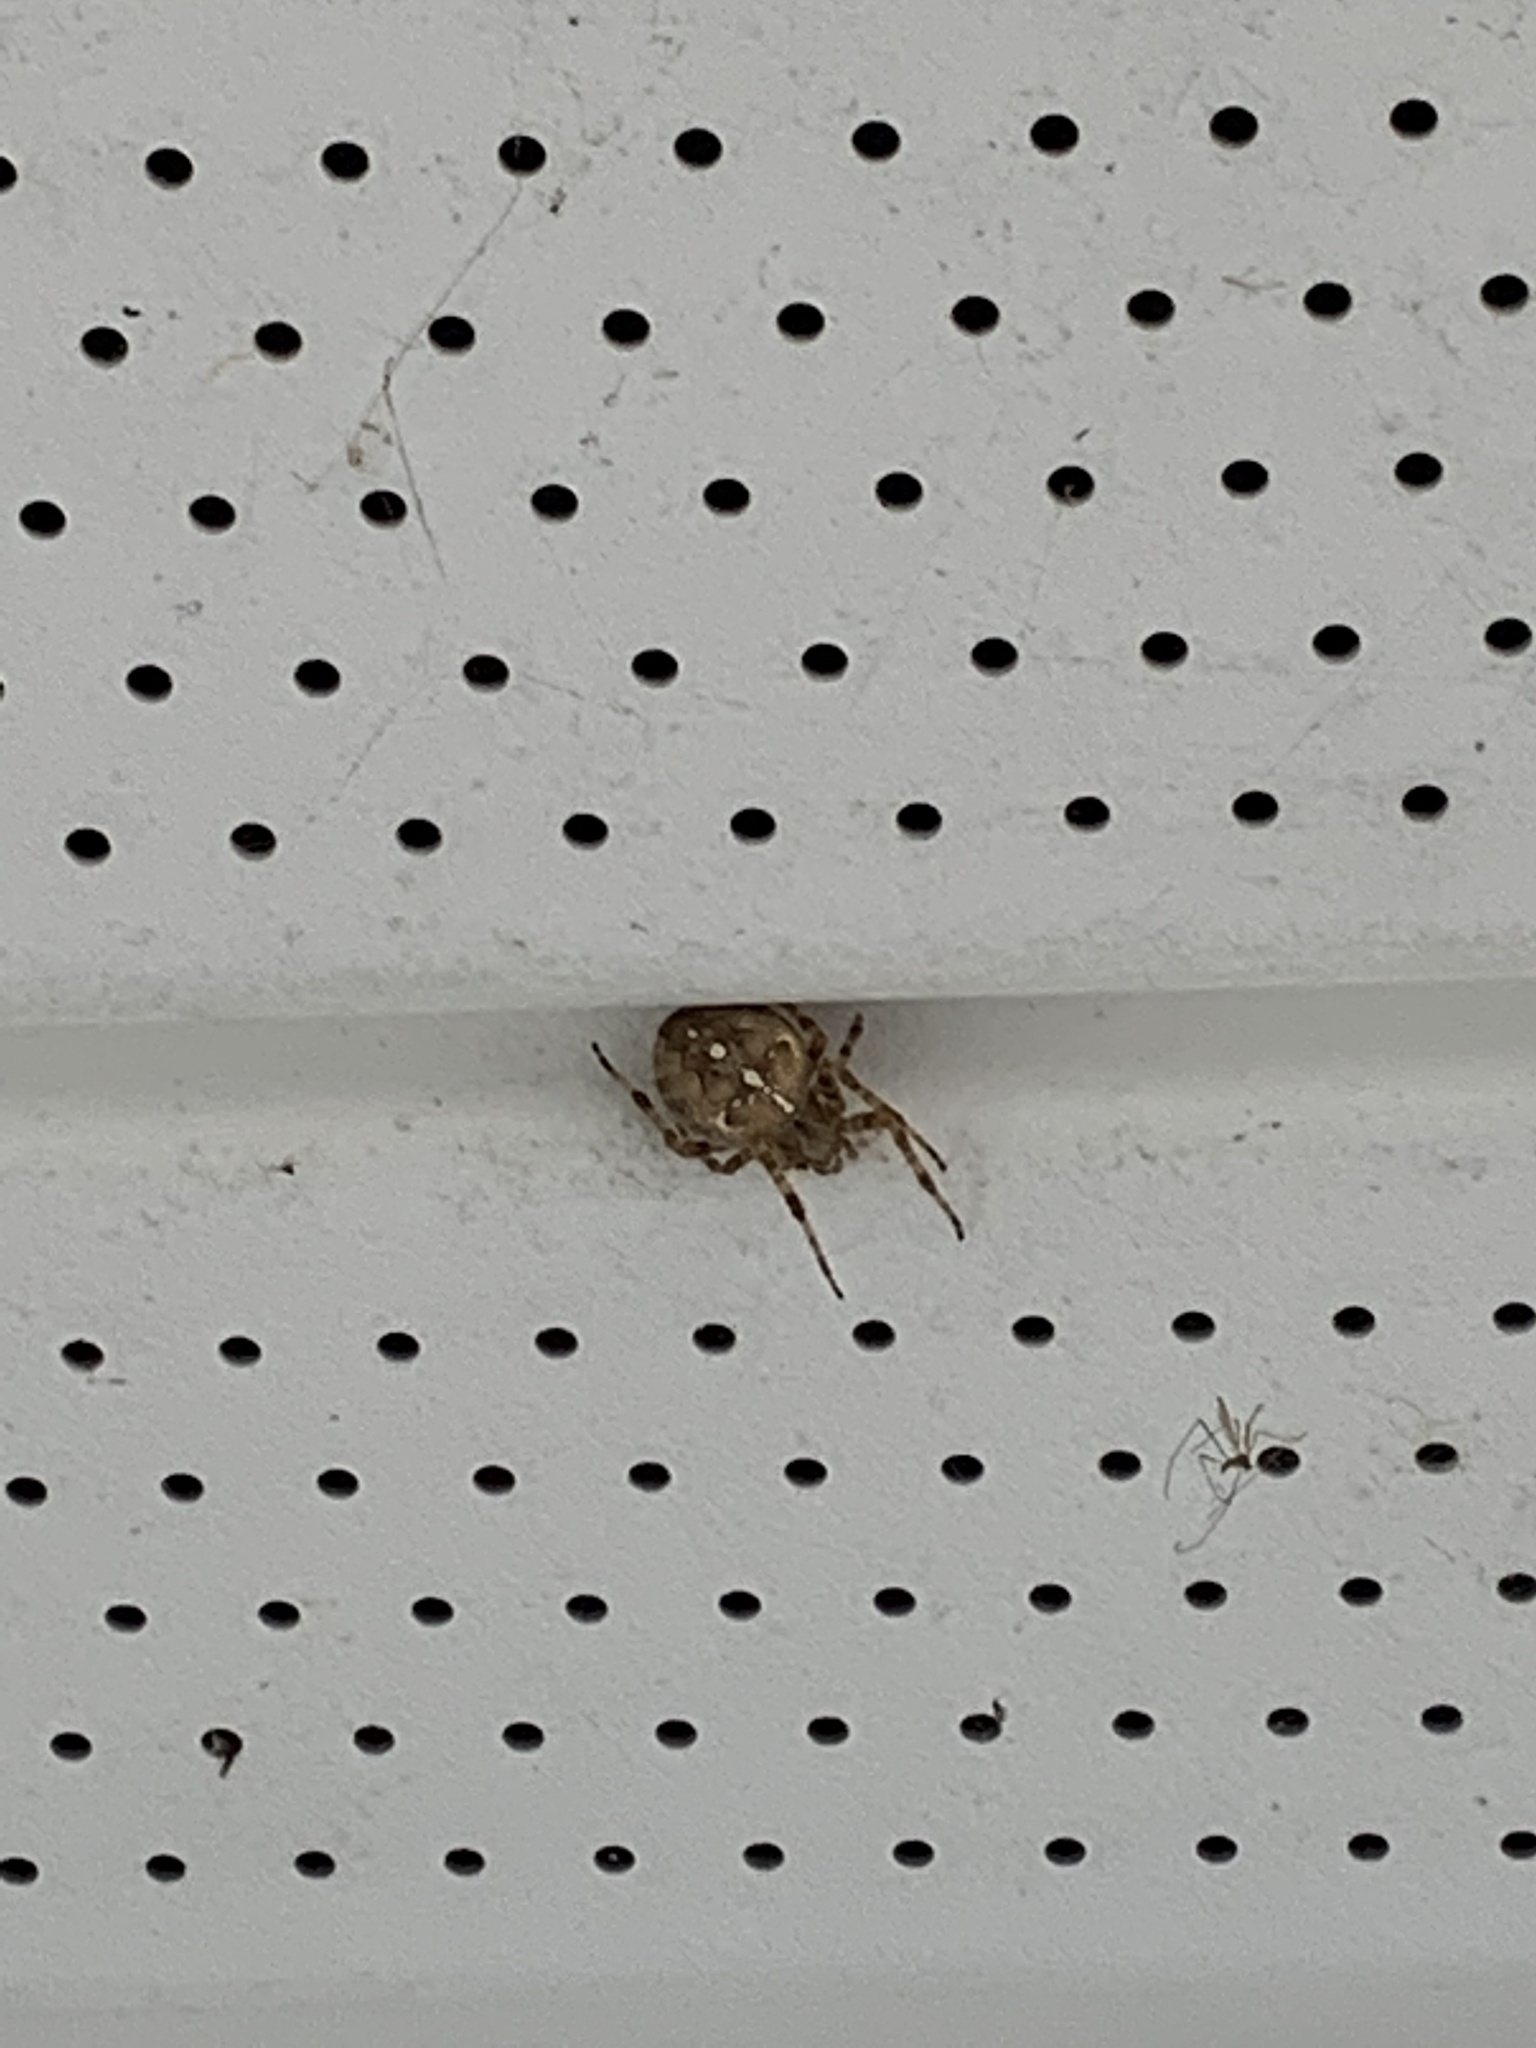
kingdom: Animalia
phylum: Arthropoda
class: Arachnida
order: Araneae
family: Araneidae
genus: Araneus
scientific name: Araneus diadematus
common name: Cross orbweaver
